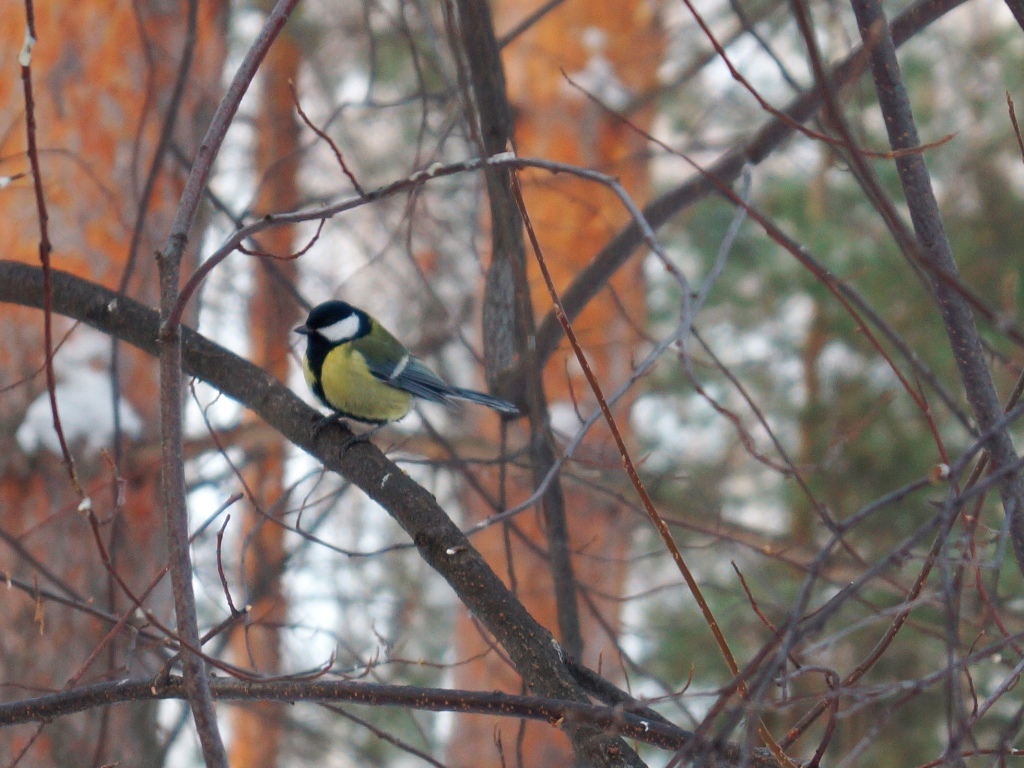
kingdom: Animalia
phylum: Chordata
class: Aves
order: Passeriformes
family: Paridae
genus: Parus
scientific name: Parus major
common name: Great tit
